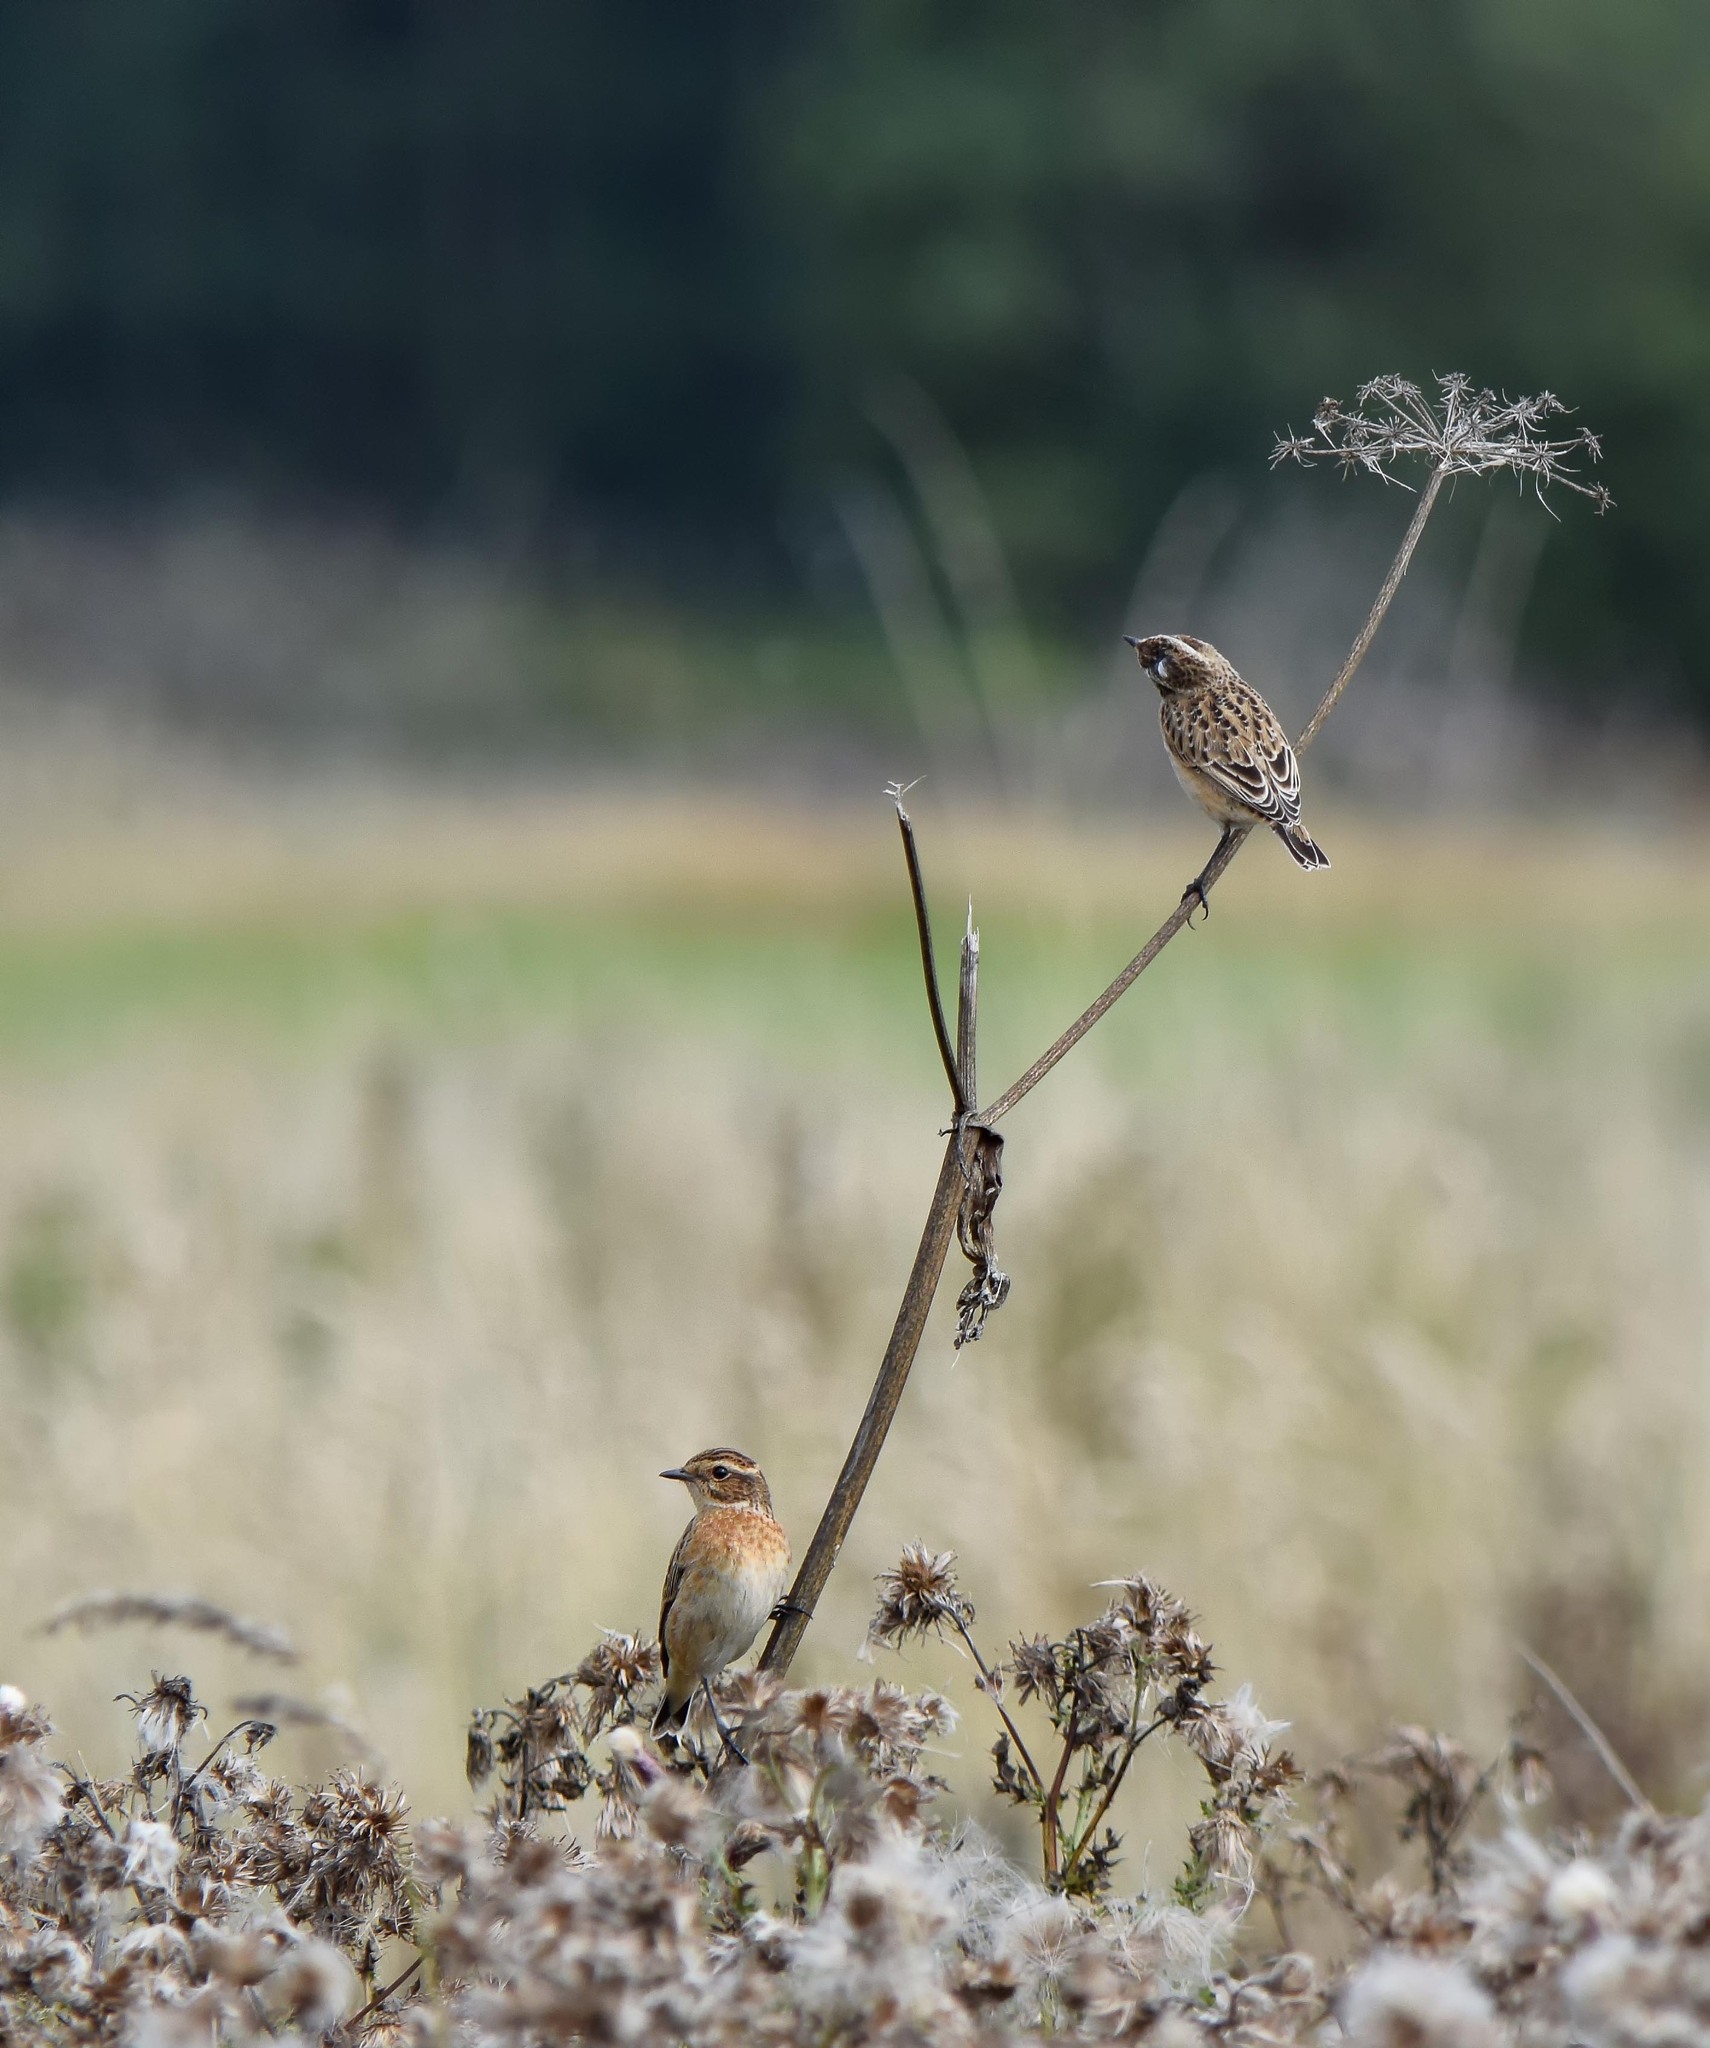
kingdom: Animalia
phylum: Chordata
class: Aves
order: Passeriformes
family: Muscicapidae
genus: Saxicola
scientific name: Saxicola rubetra
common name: Whinchat
